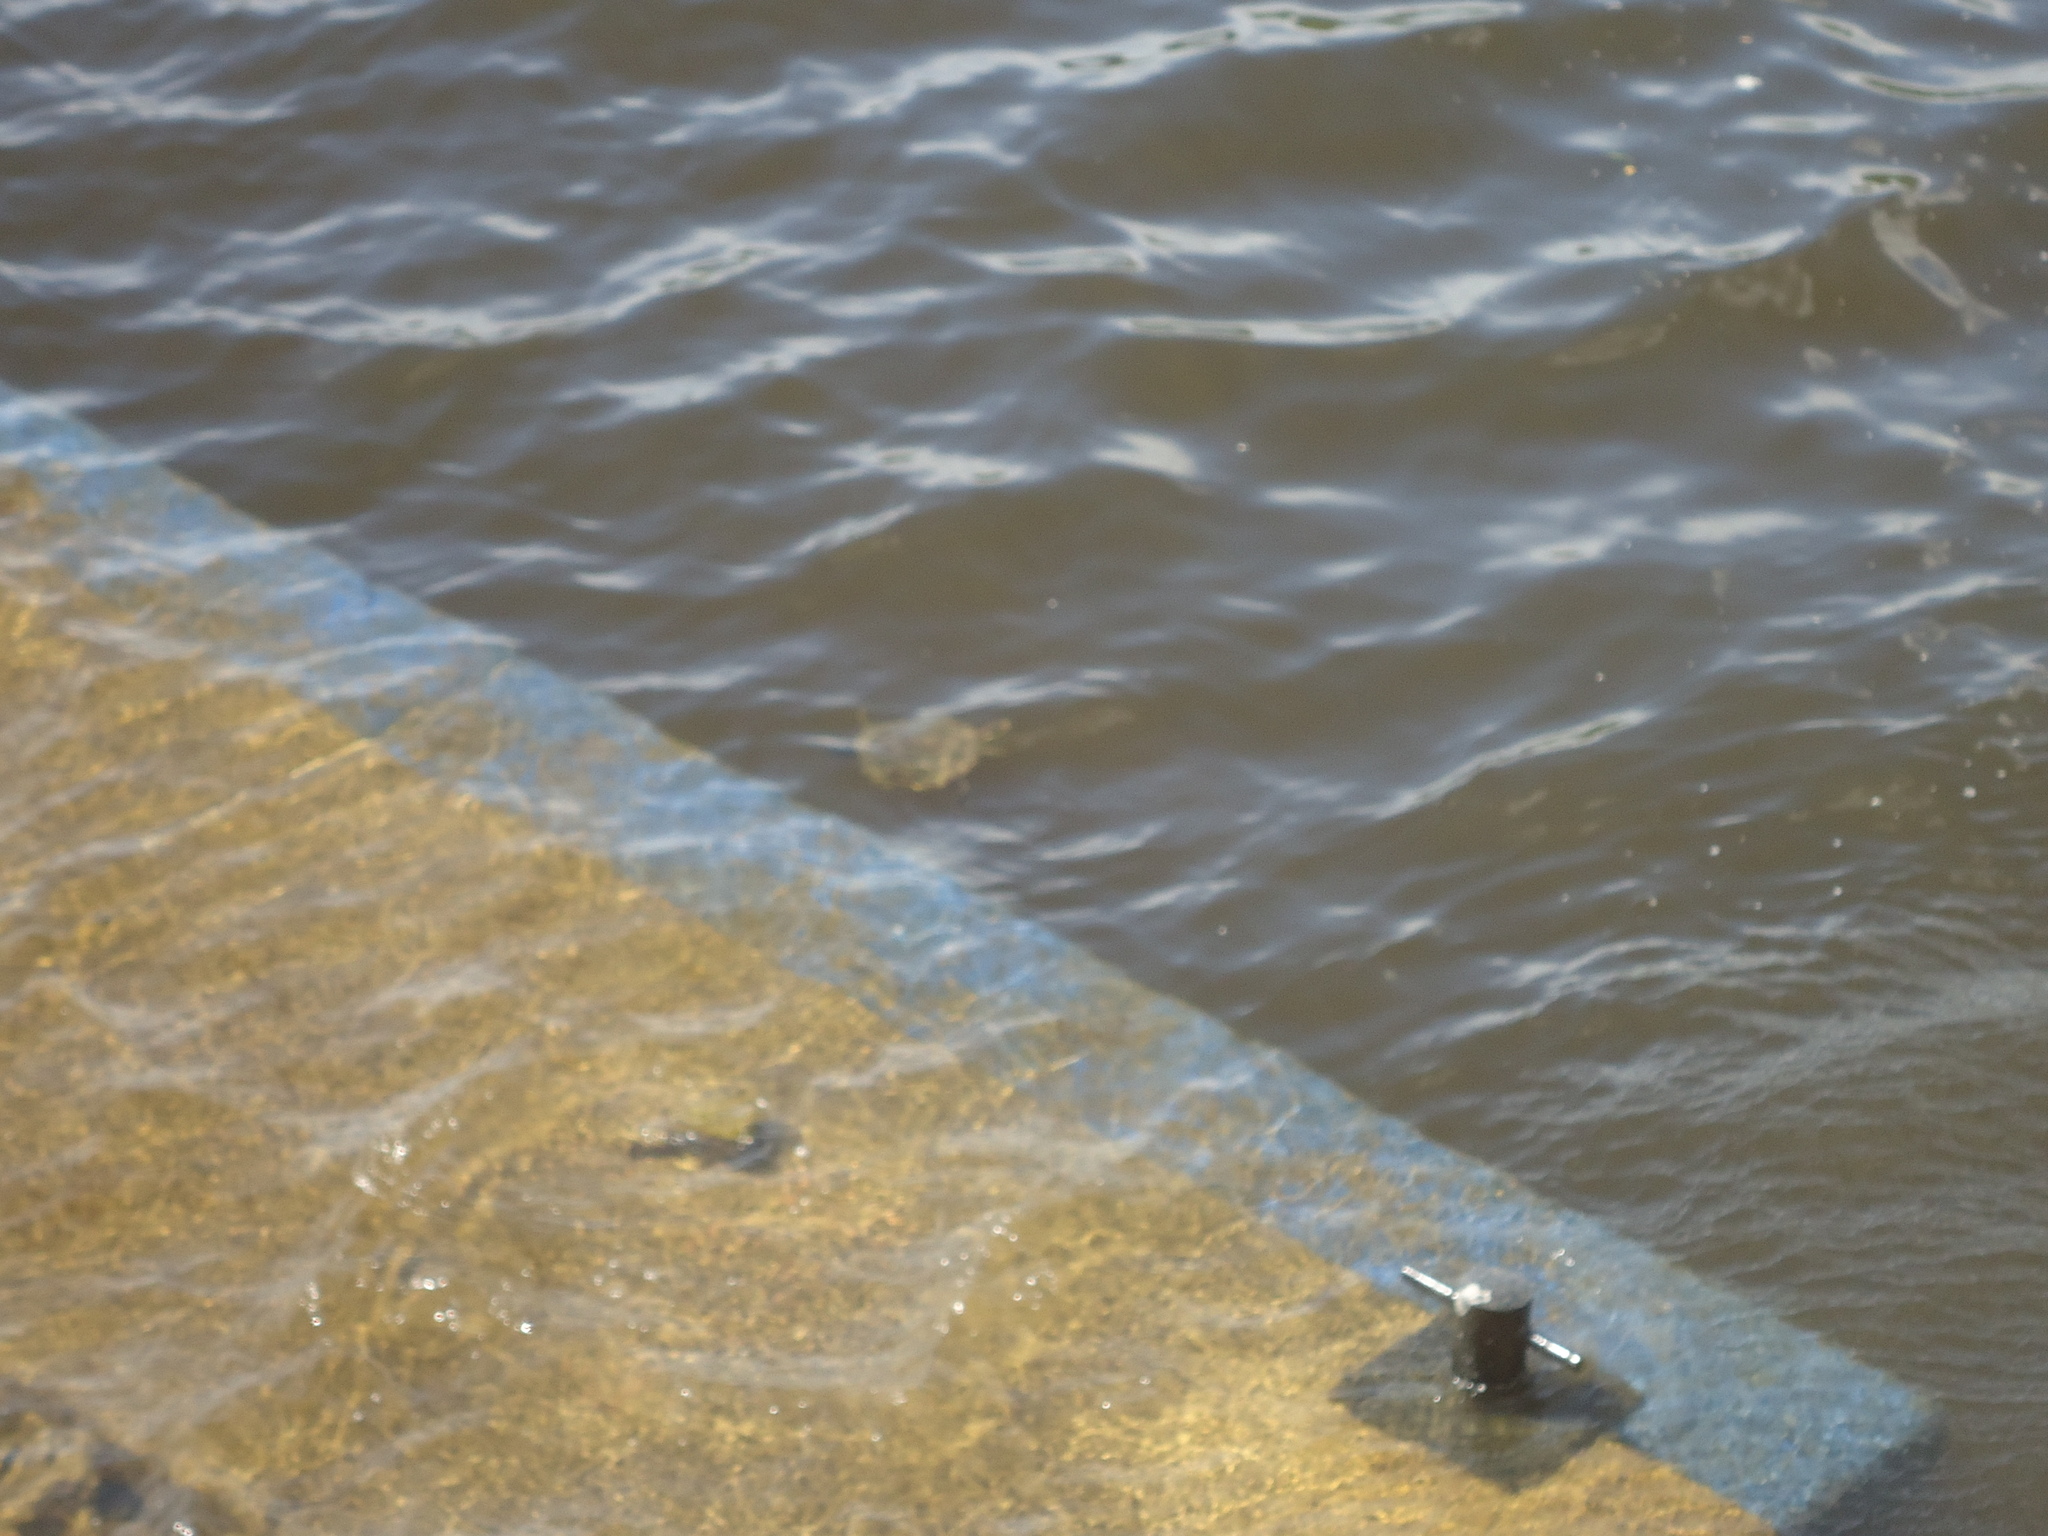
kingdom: Animalia
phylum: Chordata
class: Testudines
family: Chelydridae
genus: Chelydra
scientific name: Chelydra serpentina
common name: Common snapping turtle
